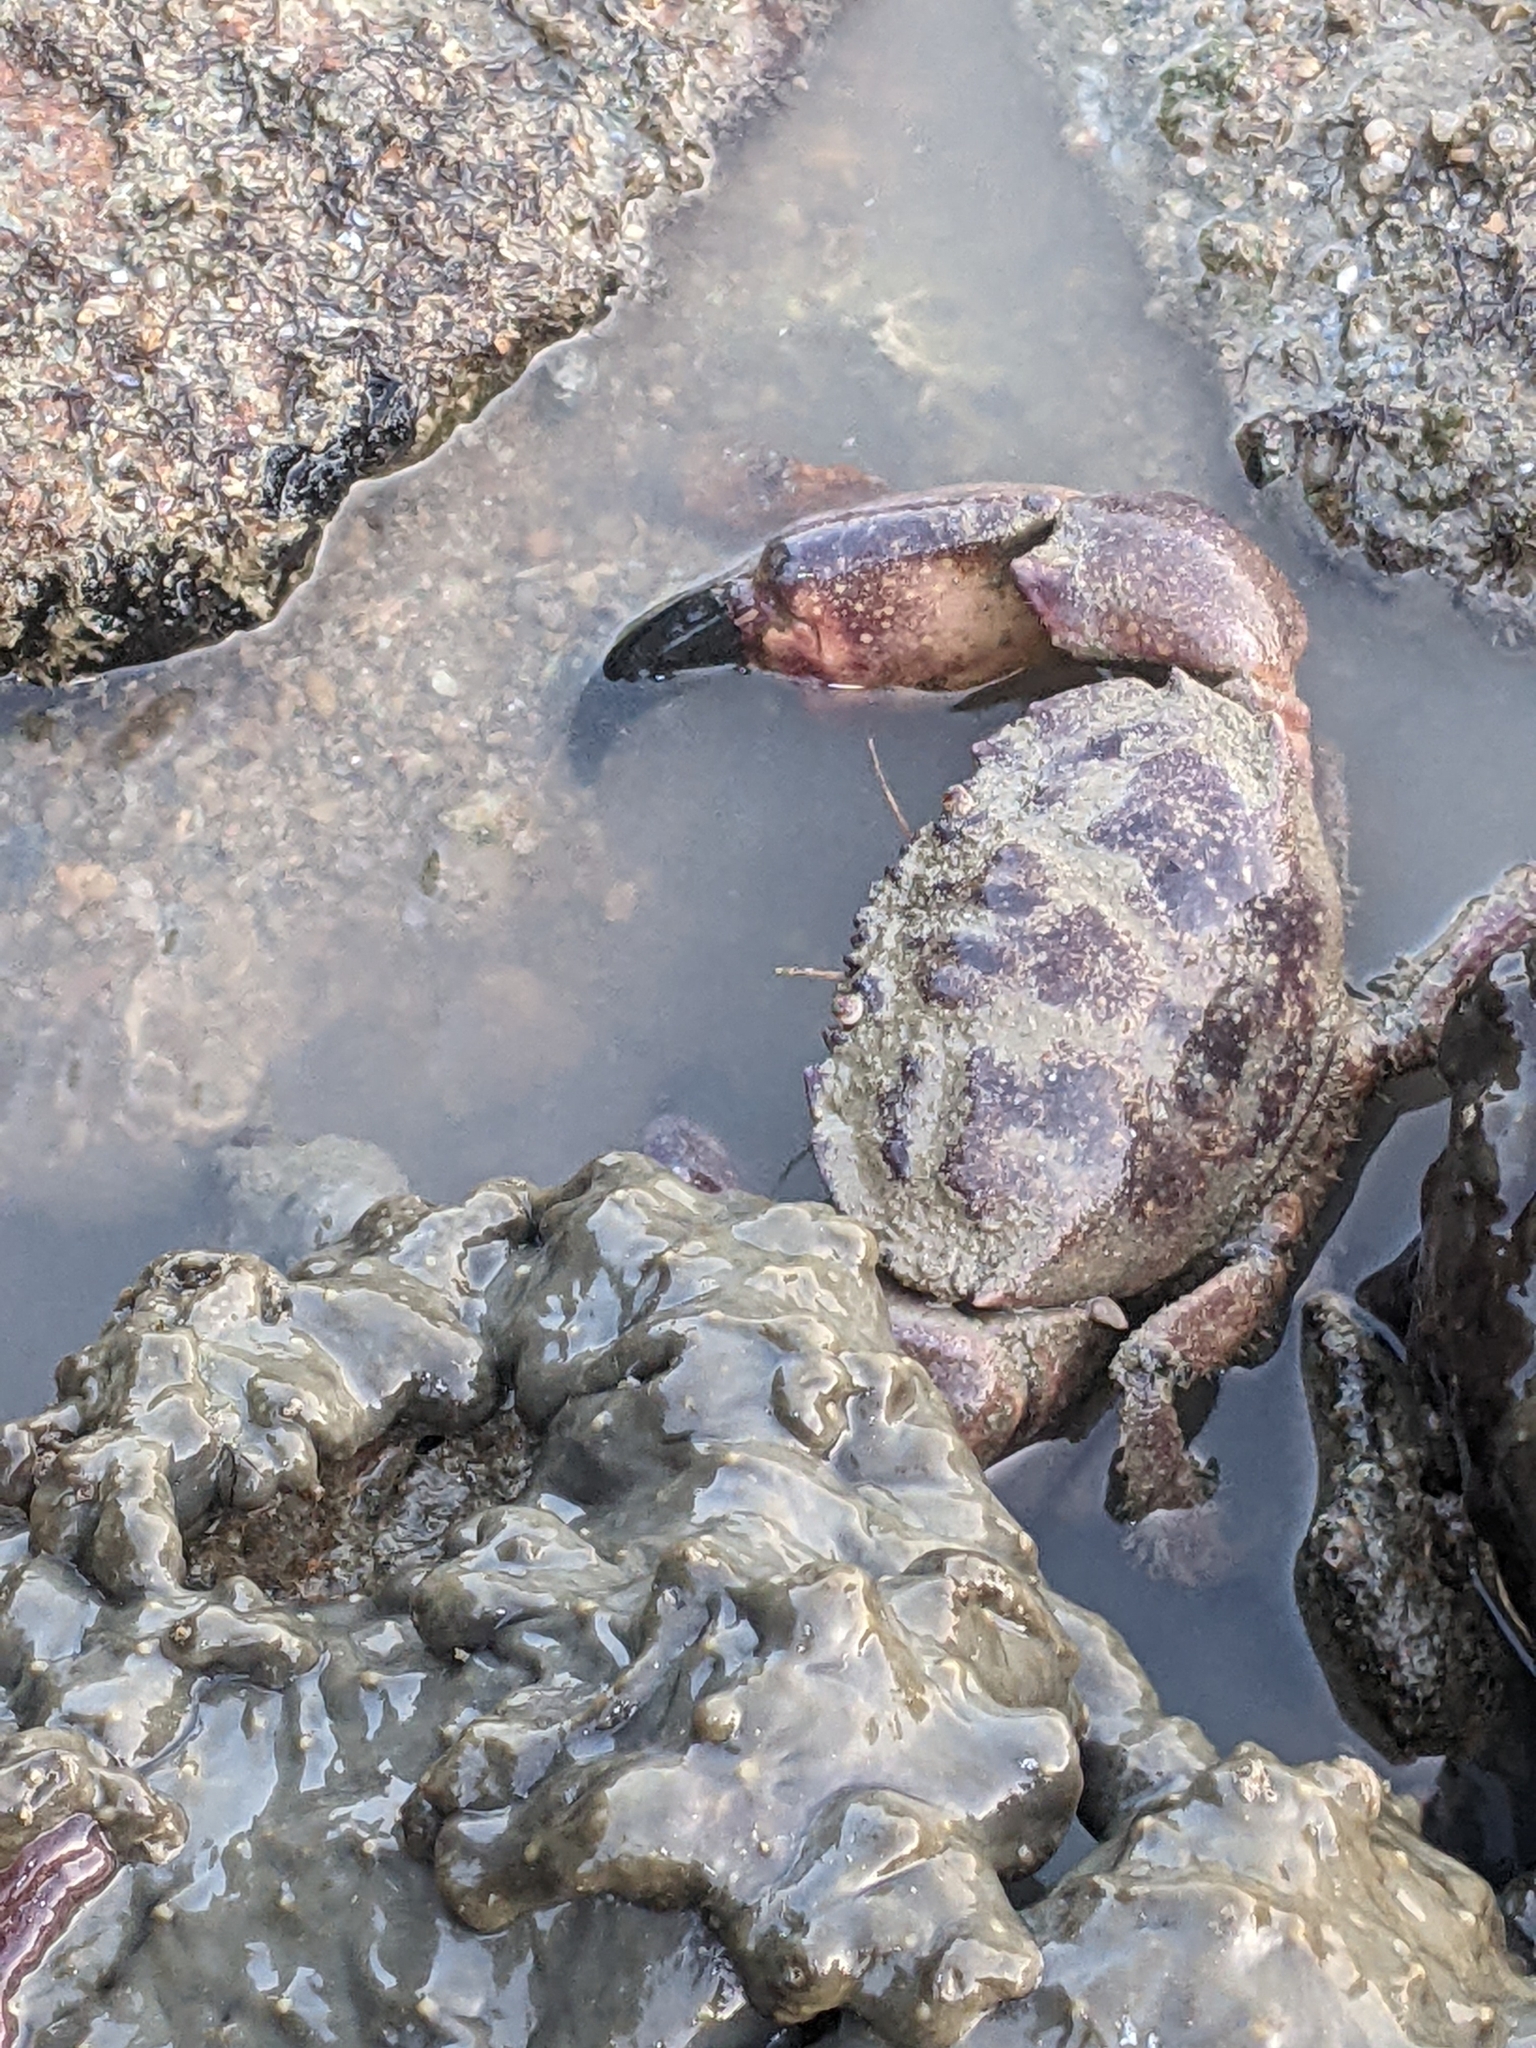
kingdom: Animalia
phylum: Arthropoda
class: Malacostraca
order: Decapoda
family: Menippidae
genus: Myomenippe
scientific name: Myomenippe hardwickii
